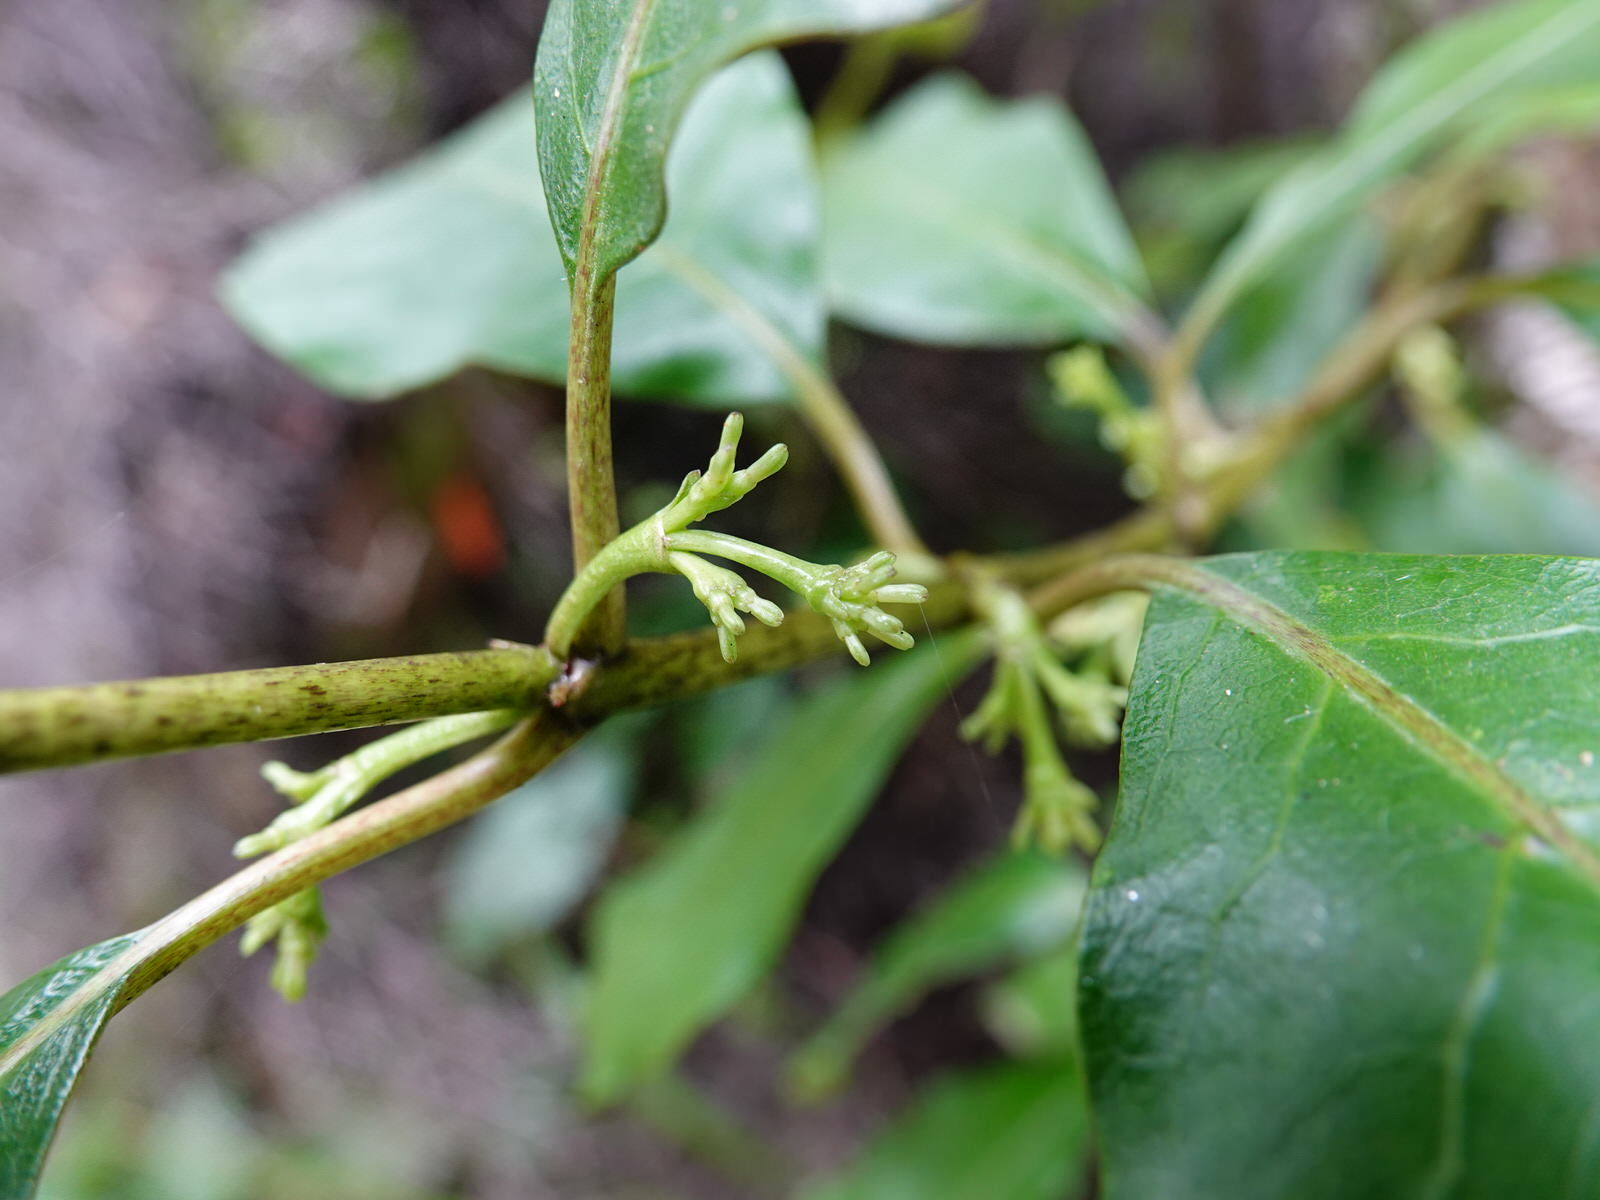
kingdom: Plantae
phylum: Tracheophyta
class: Magnoliopsida
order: Gentianales
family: Rubiaceae
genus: Coprosma
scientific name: Coprosma autumnalis
